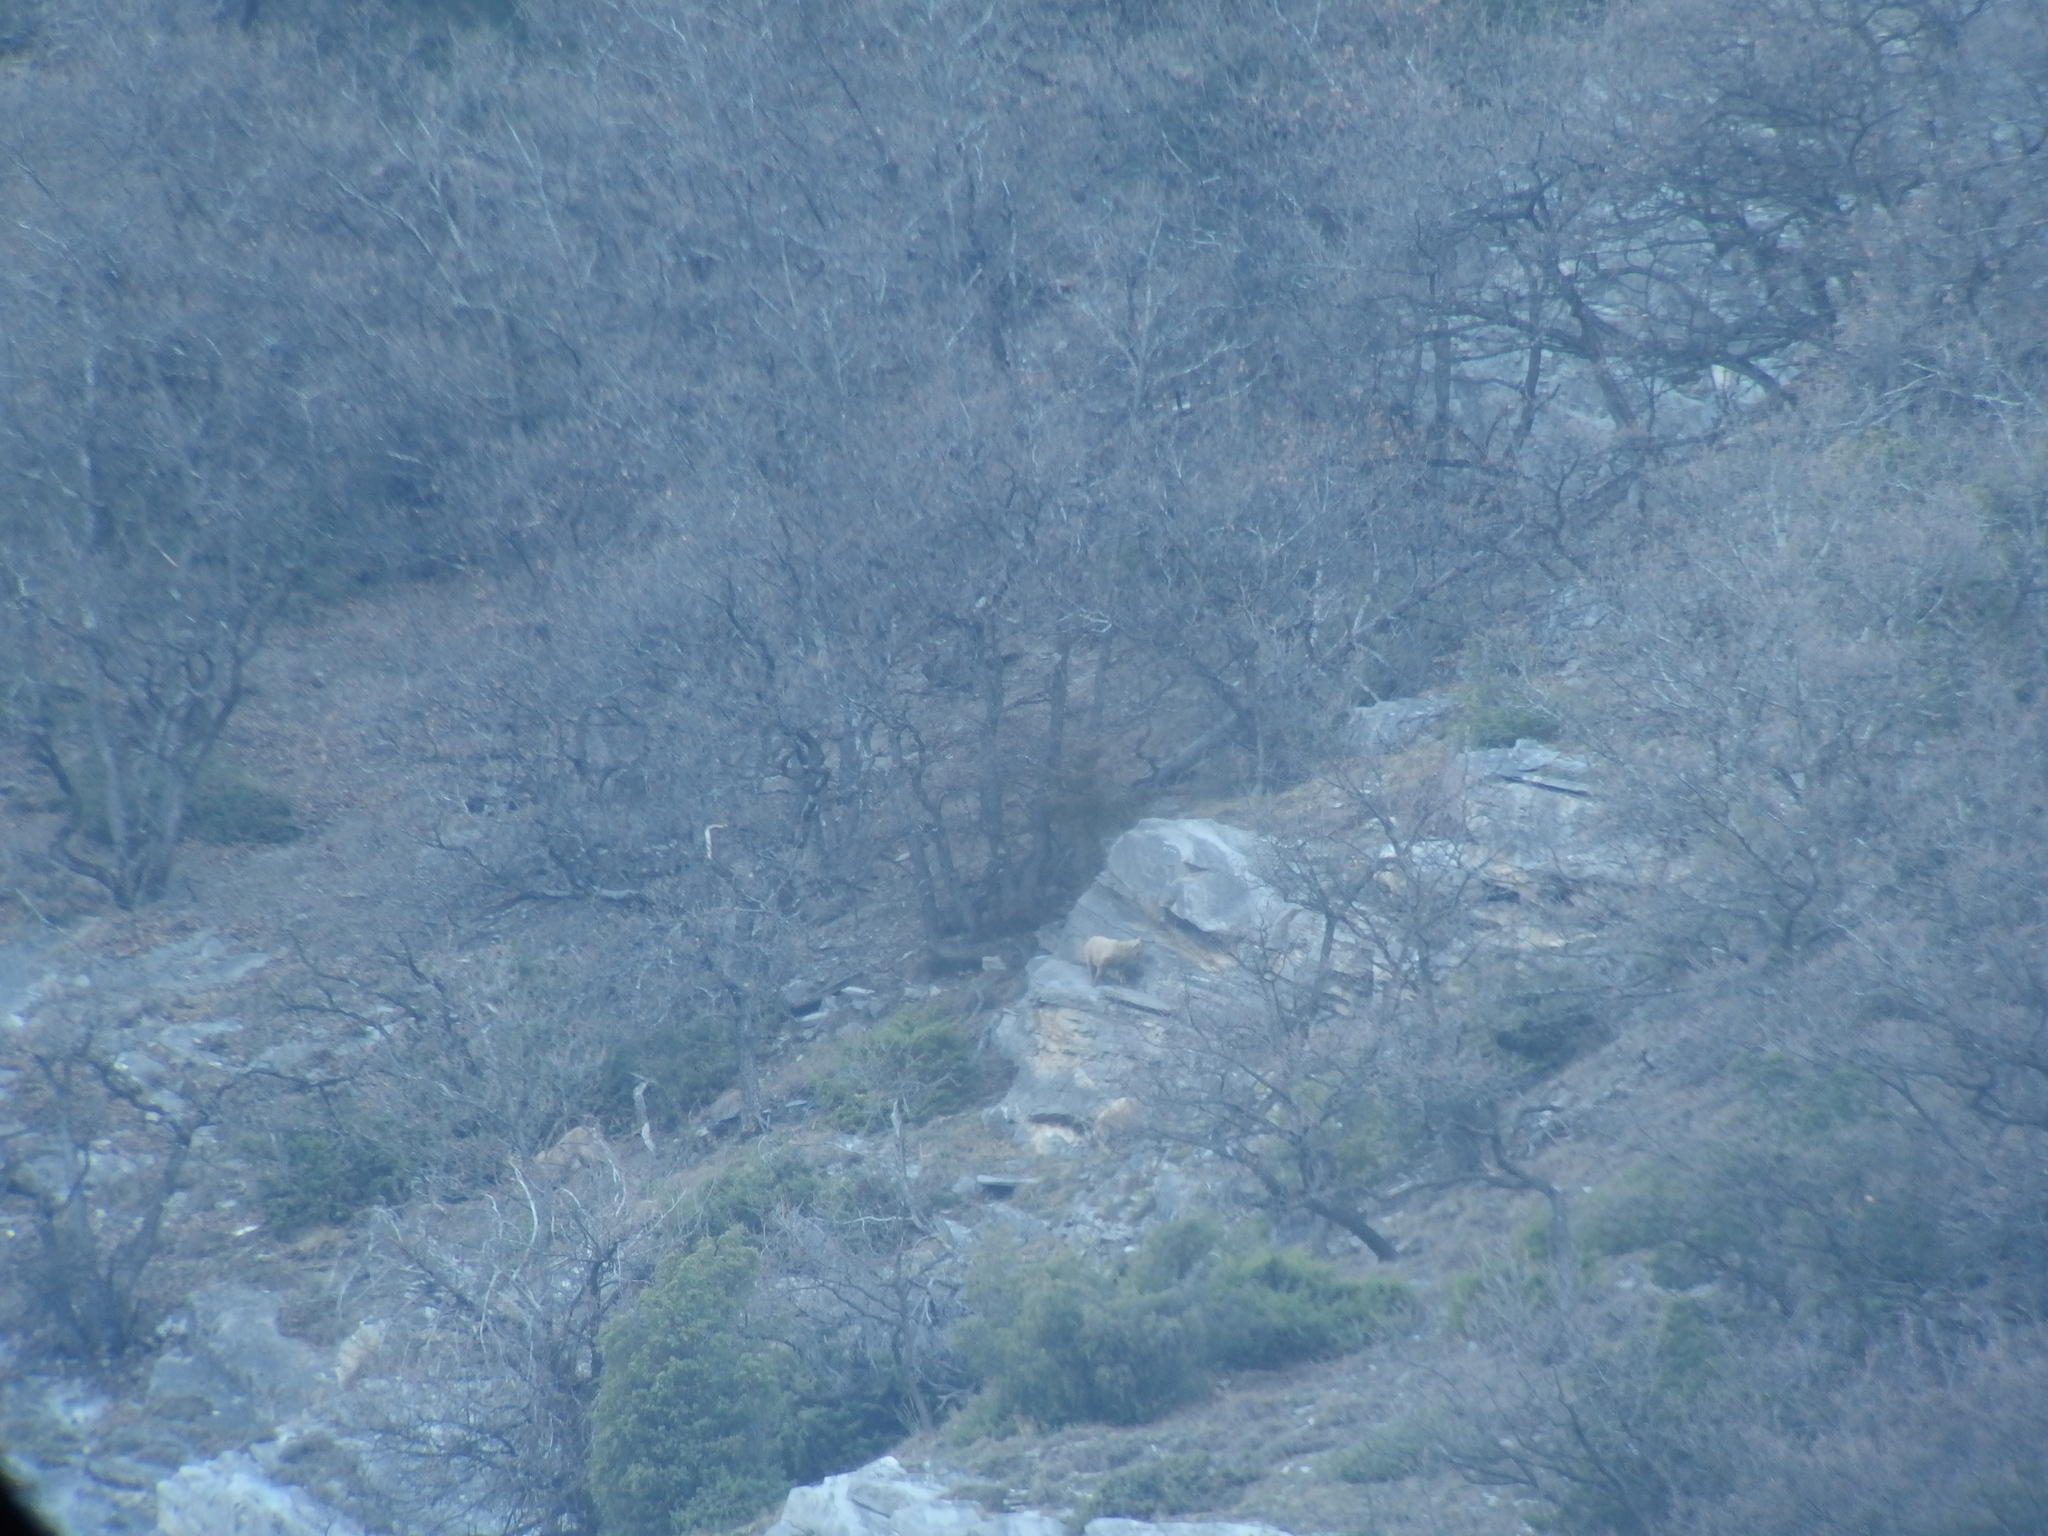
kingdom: Animalia
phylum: Chordata
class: Mammalia
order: Artiodactyla
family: Bovidae
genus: Capra
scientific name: Capra ibex
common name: Alpine ibex
